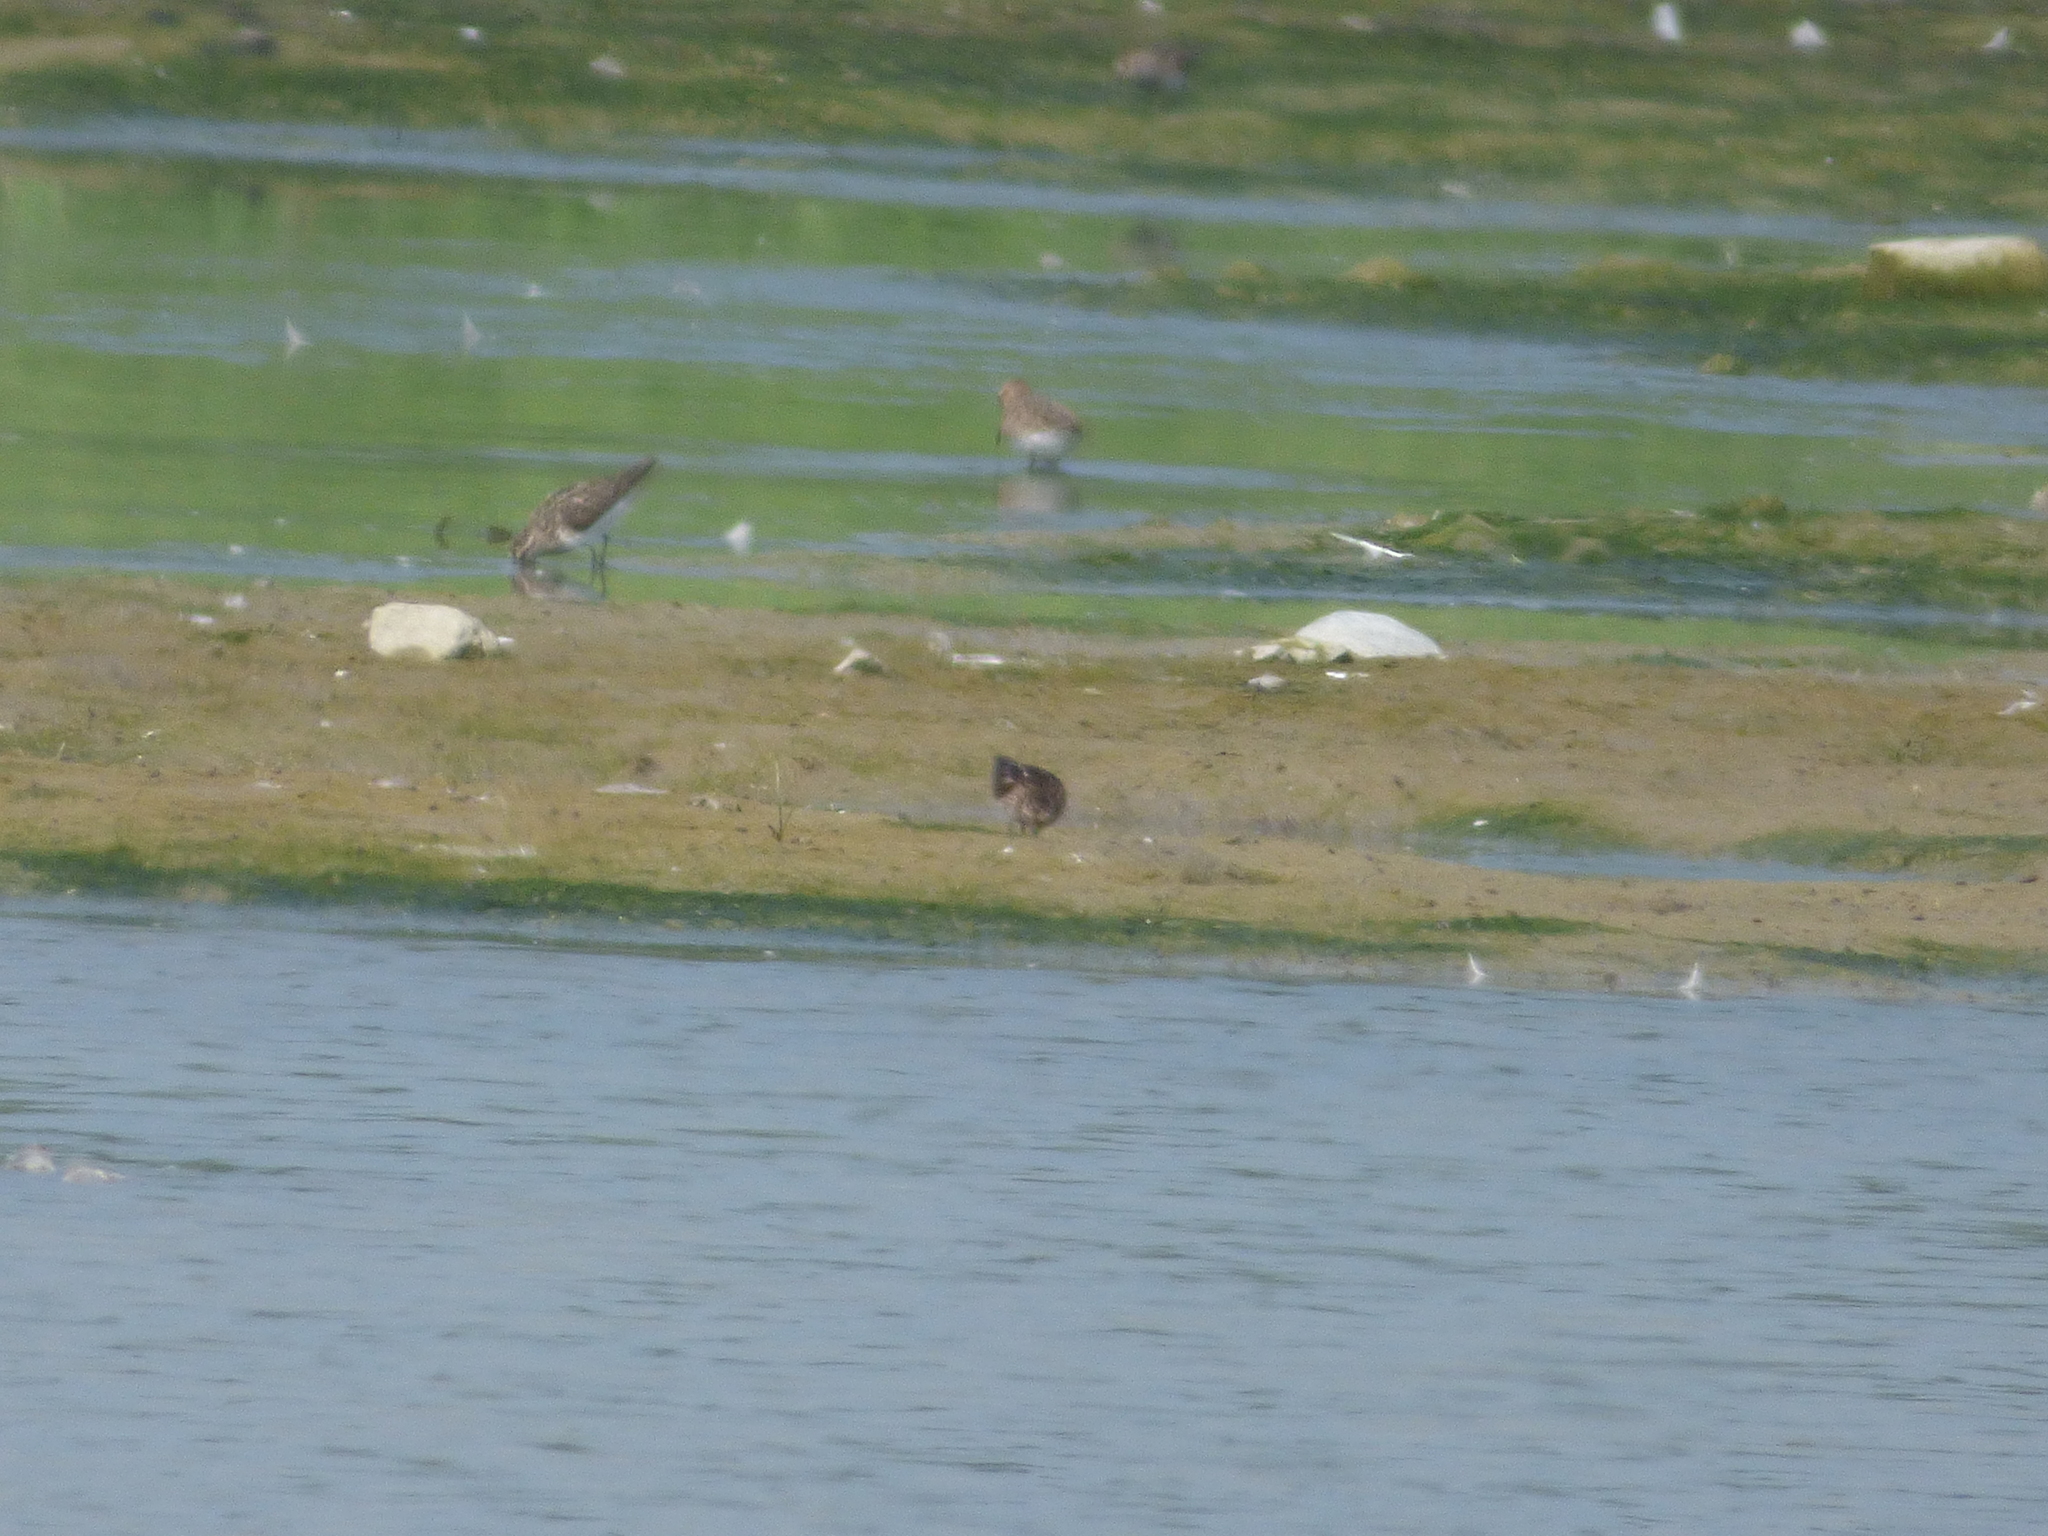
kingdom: Animalia
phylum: Chordata
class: Aves
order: Charadriiformes
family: Scolopacidae
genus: Calidris
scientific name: Calidris minutilla
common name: Least sandpiper
